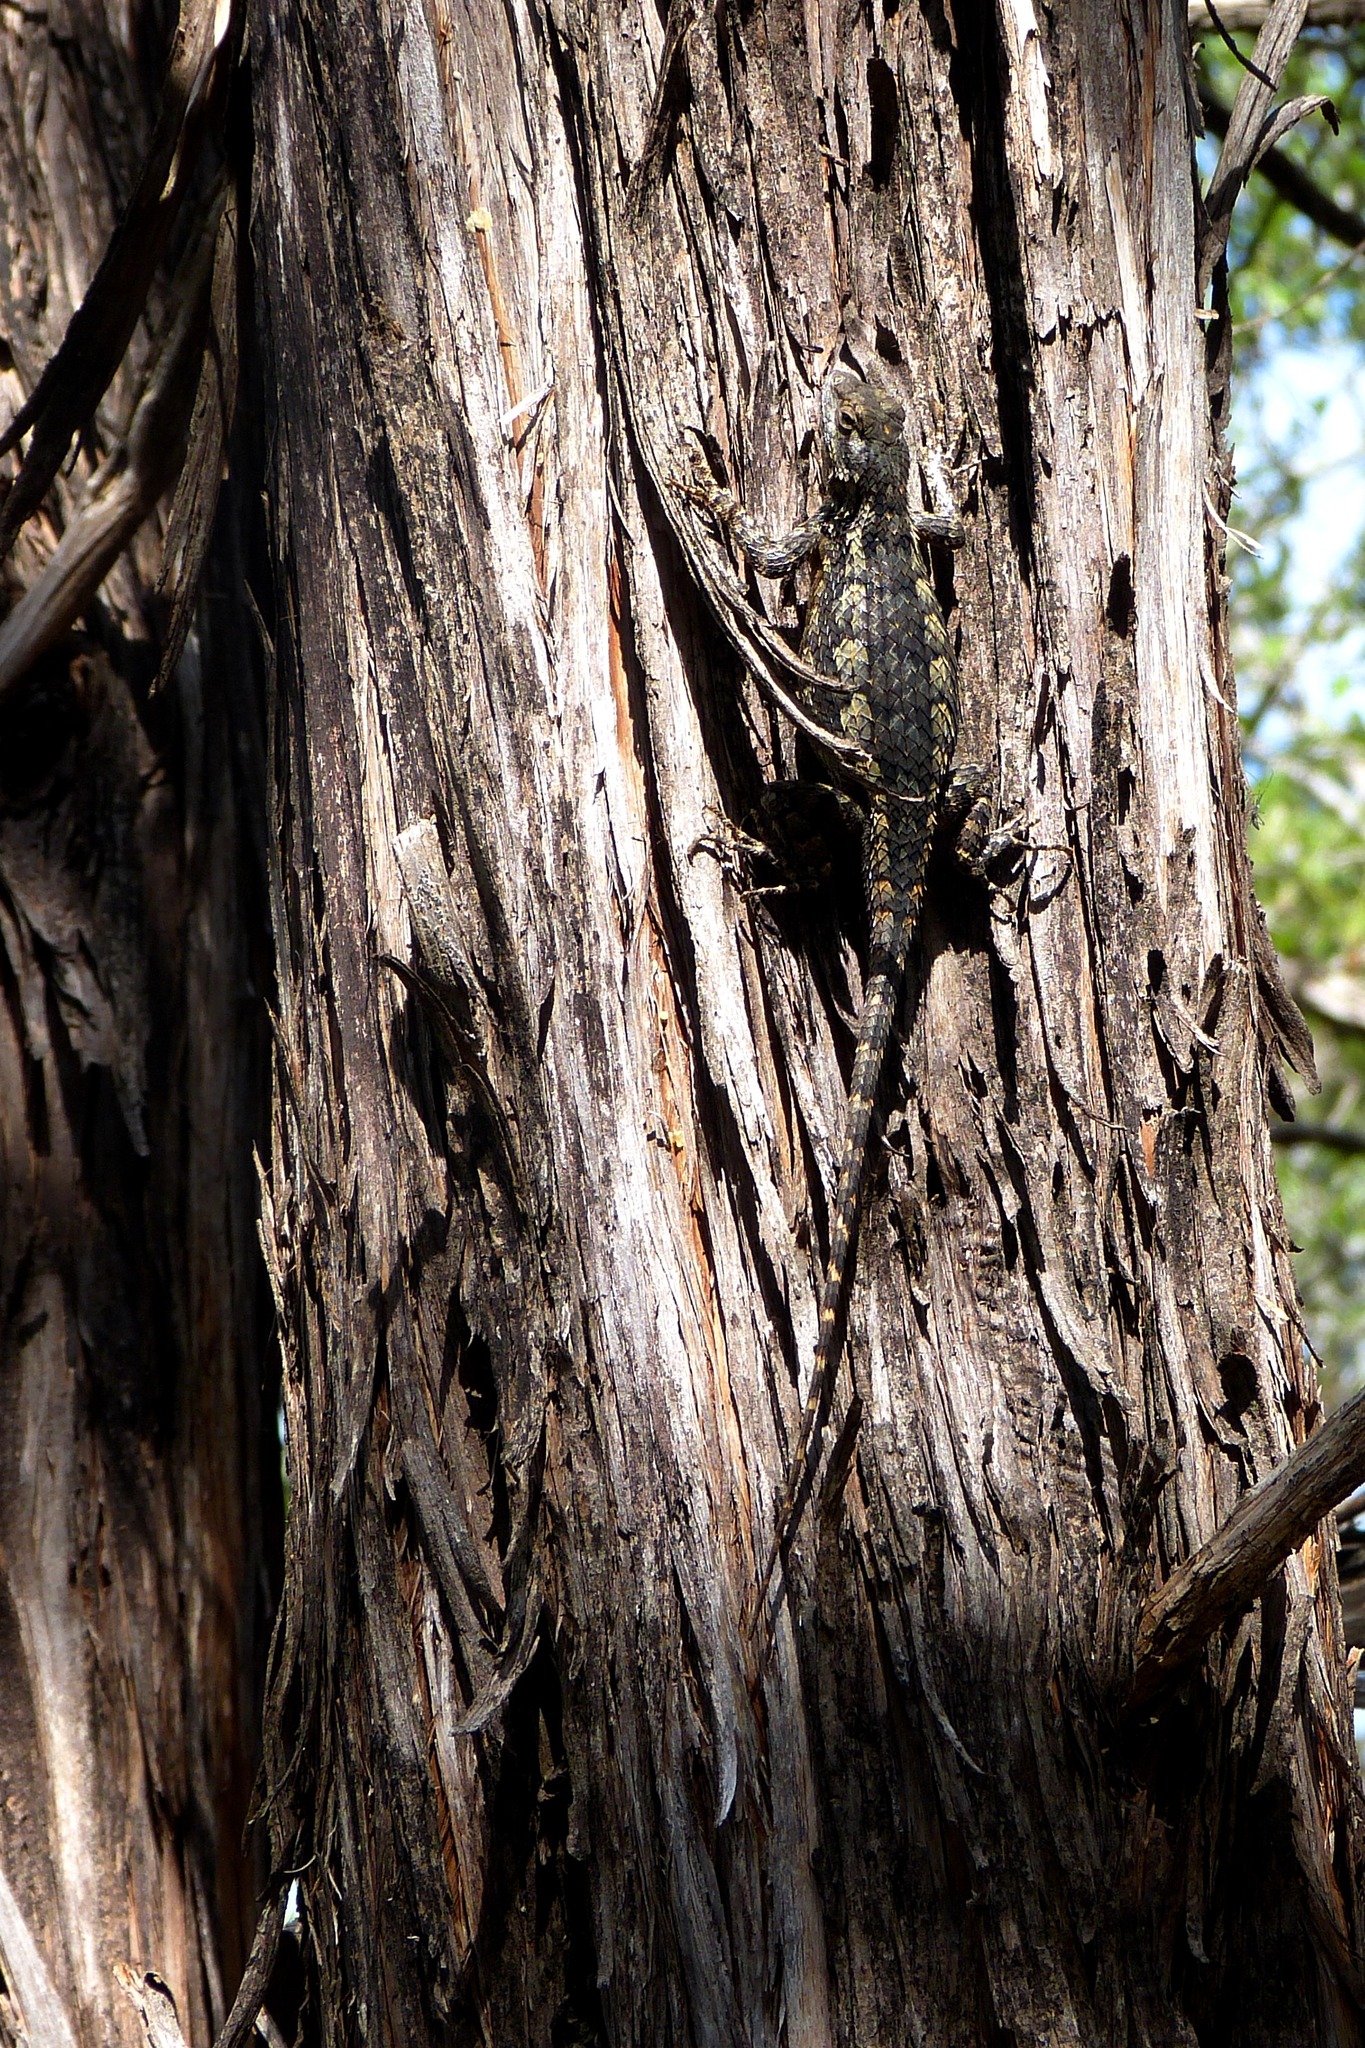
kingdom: Animalia
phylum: Chordata
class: Squamata
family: Phrynosomatidae
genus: Sceloporus
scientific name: Sceloporus olivaceus
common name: Texas spiny lizard
